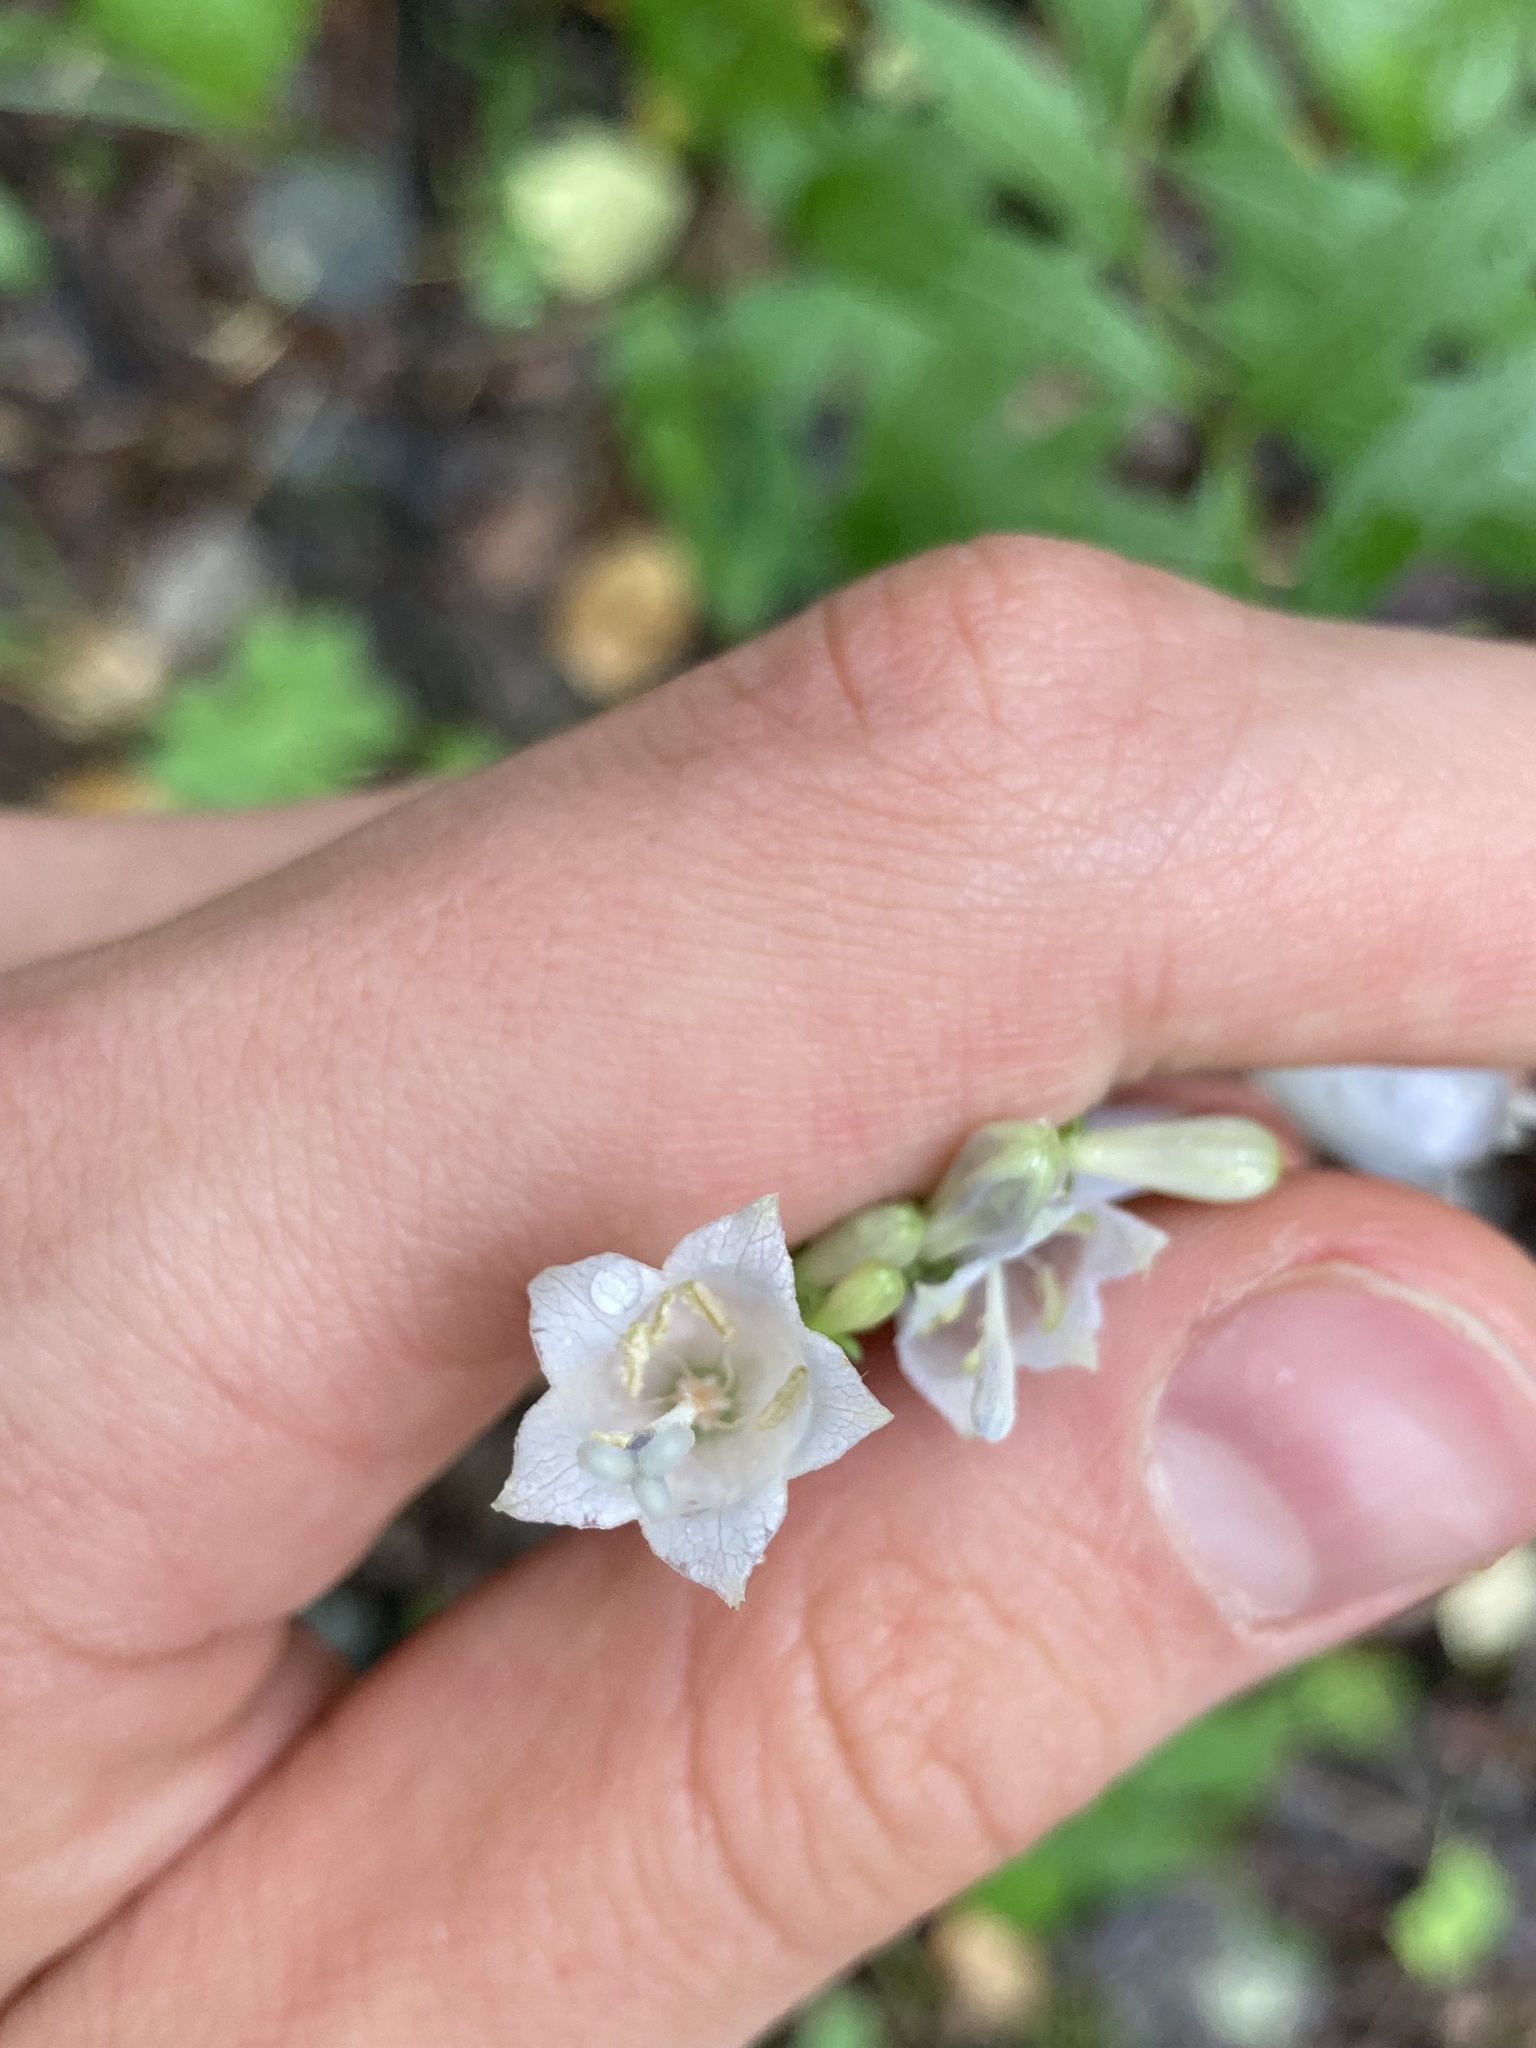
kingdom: Plantae
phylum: Tracheophyta
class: Magnoliopsida
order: Asterales
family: Campanulaceae
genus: Adenophora
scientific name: Adenophora liliifolia
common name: Lilyleaf ladybells
